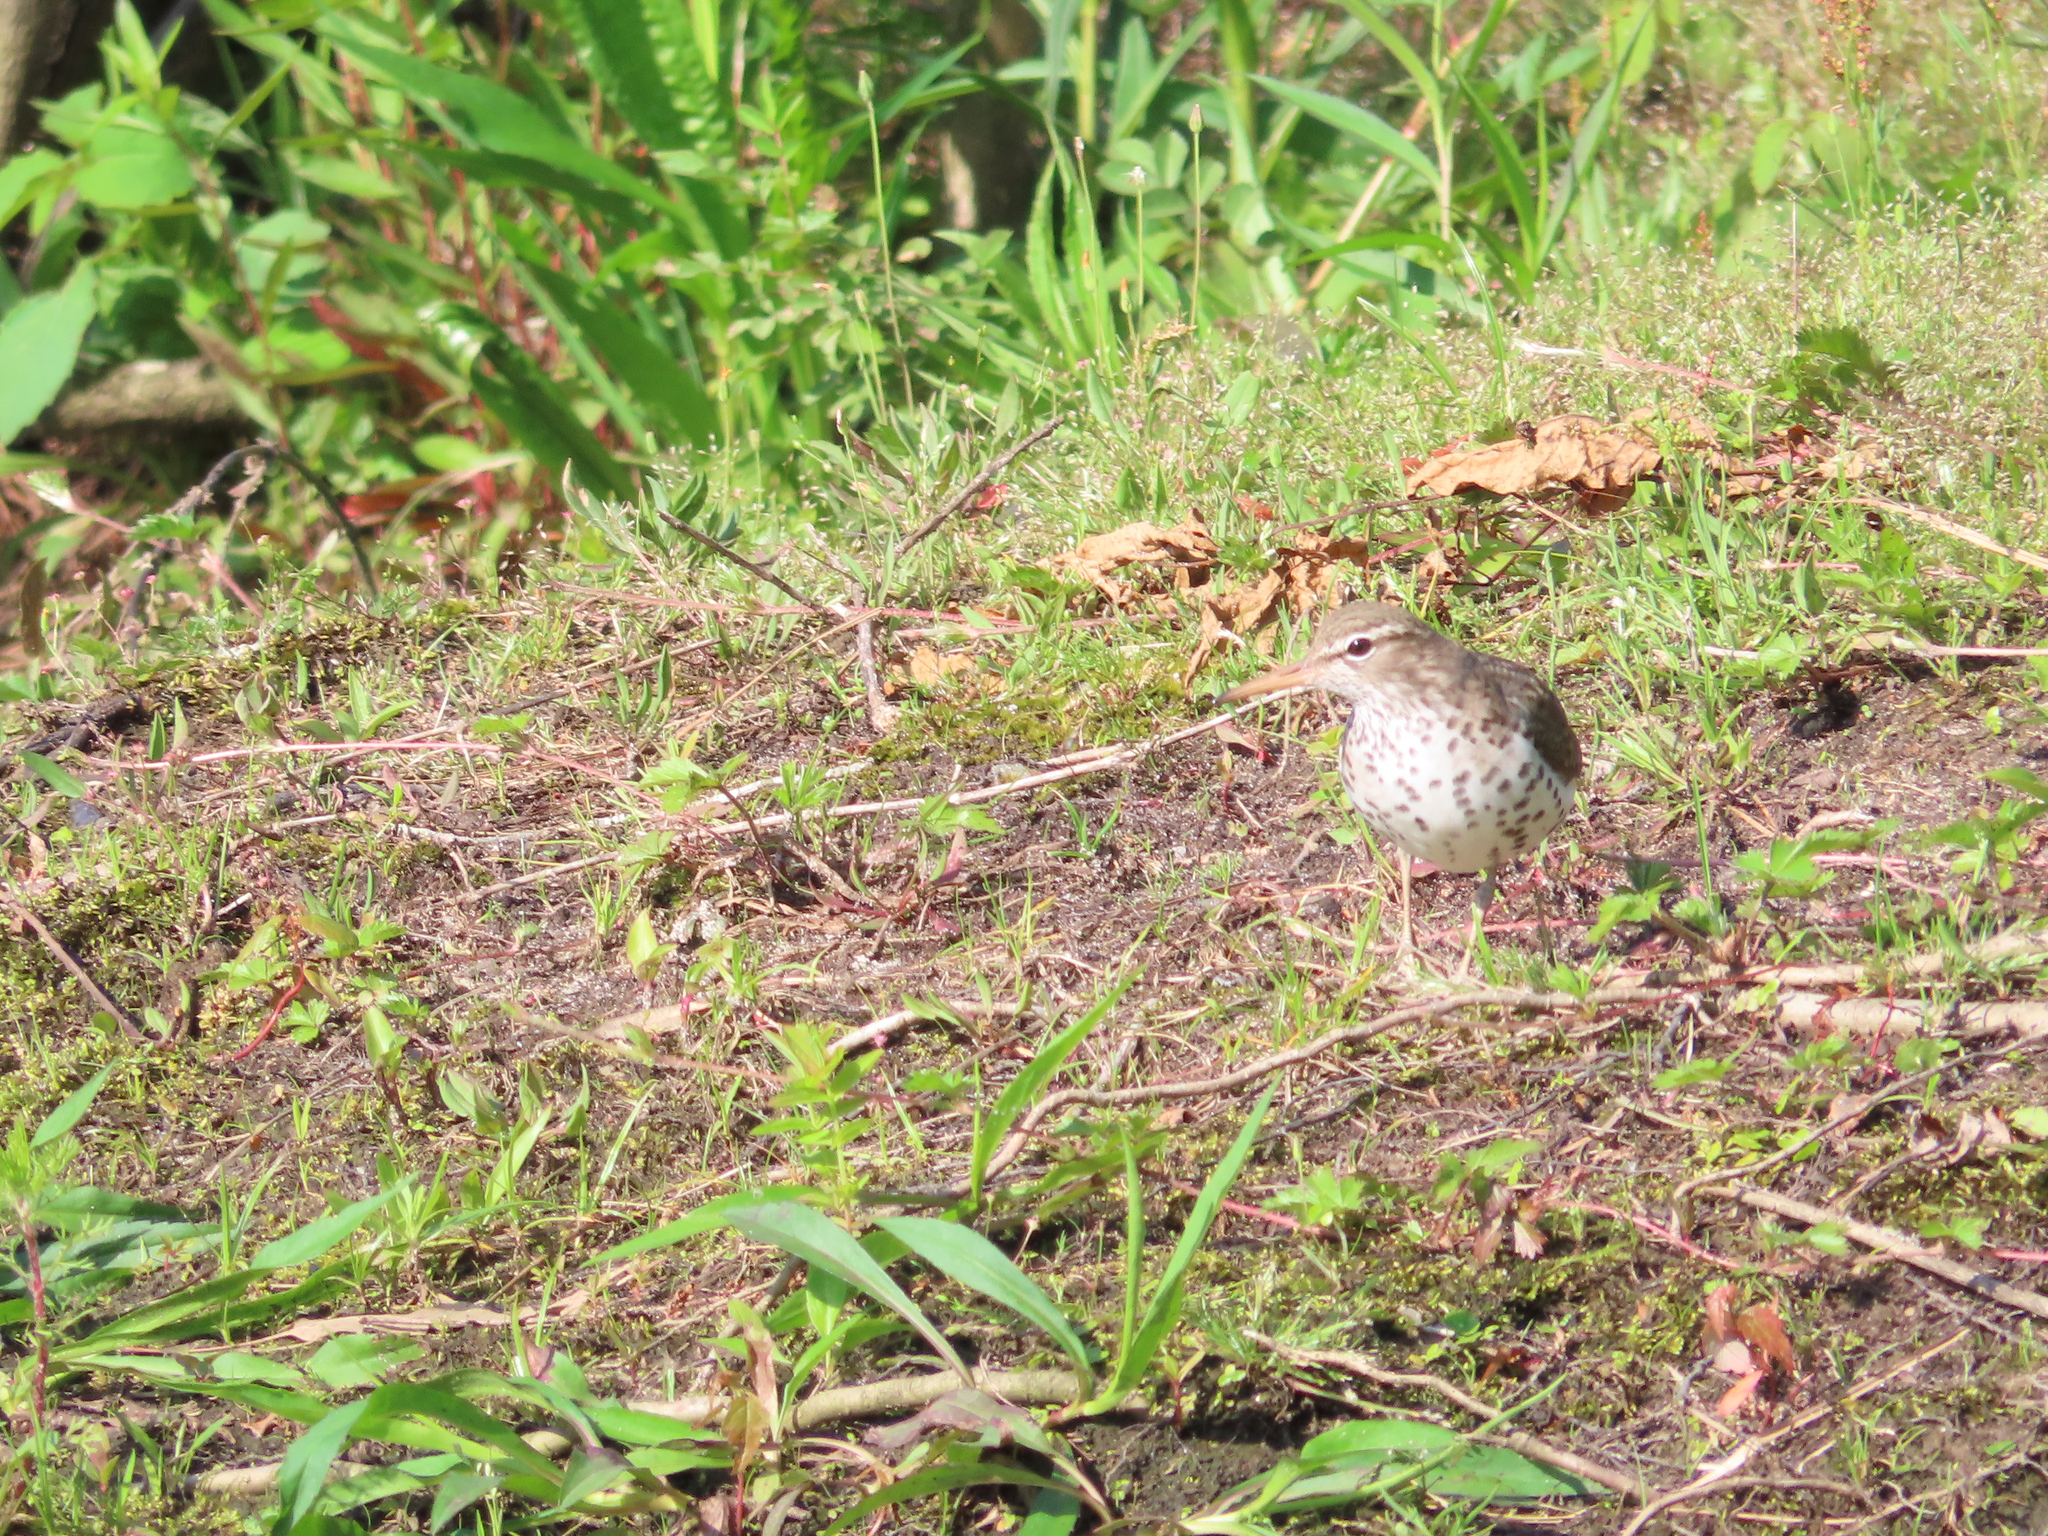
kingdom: Animalia
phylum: Chordata
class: Aves
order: Charadriiformes
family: Scolopacidae
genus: Actitis
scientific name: Actitis macularius
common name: Spotted sandpiper
